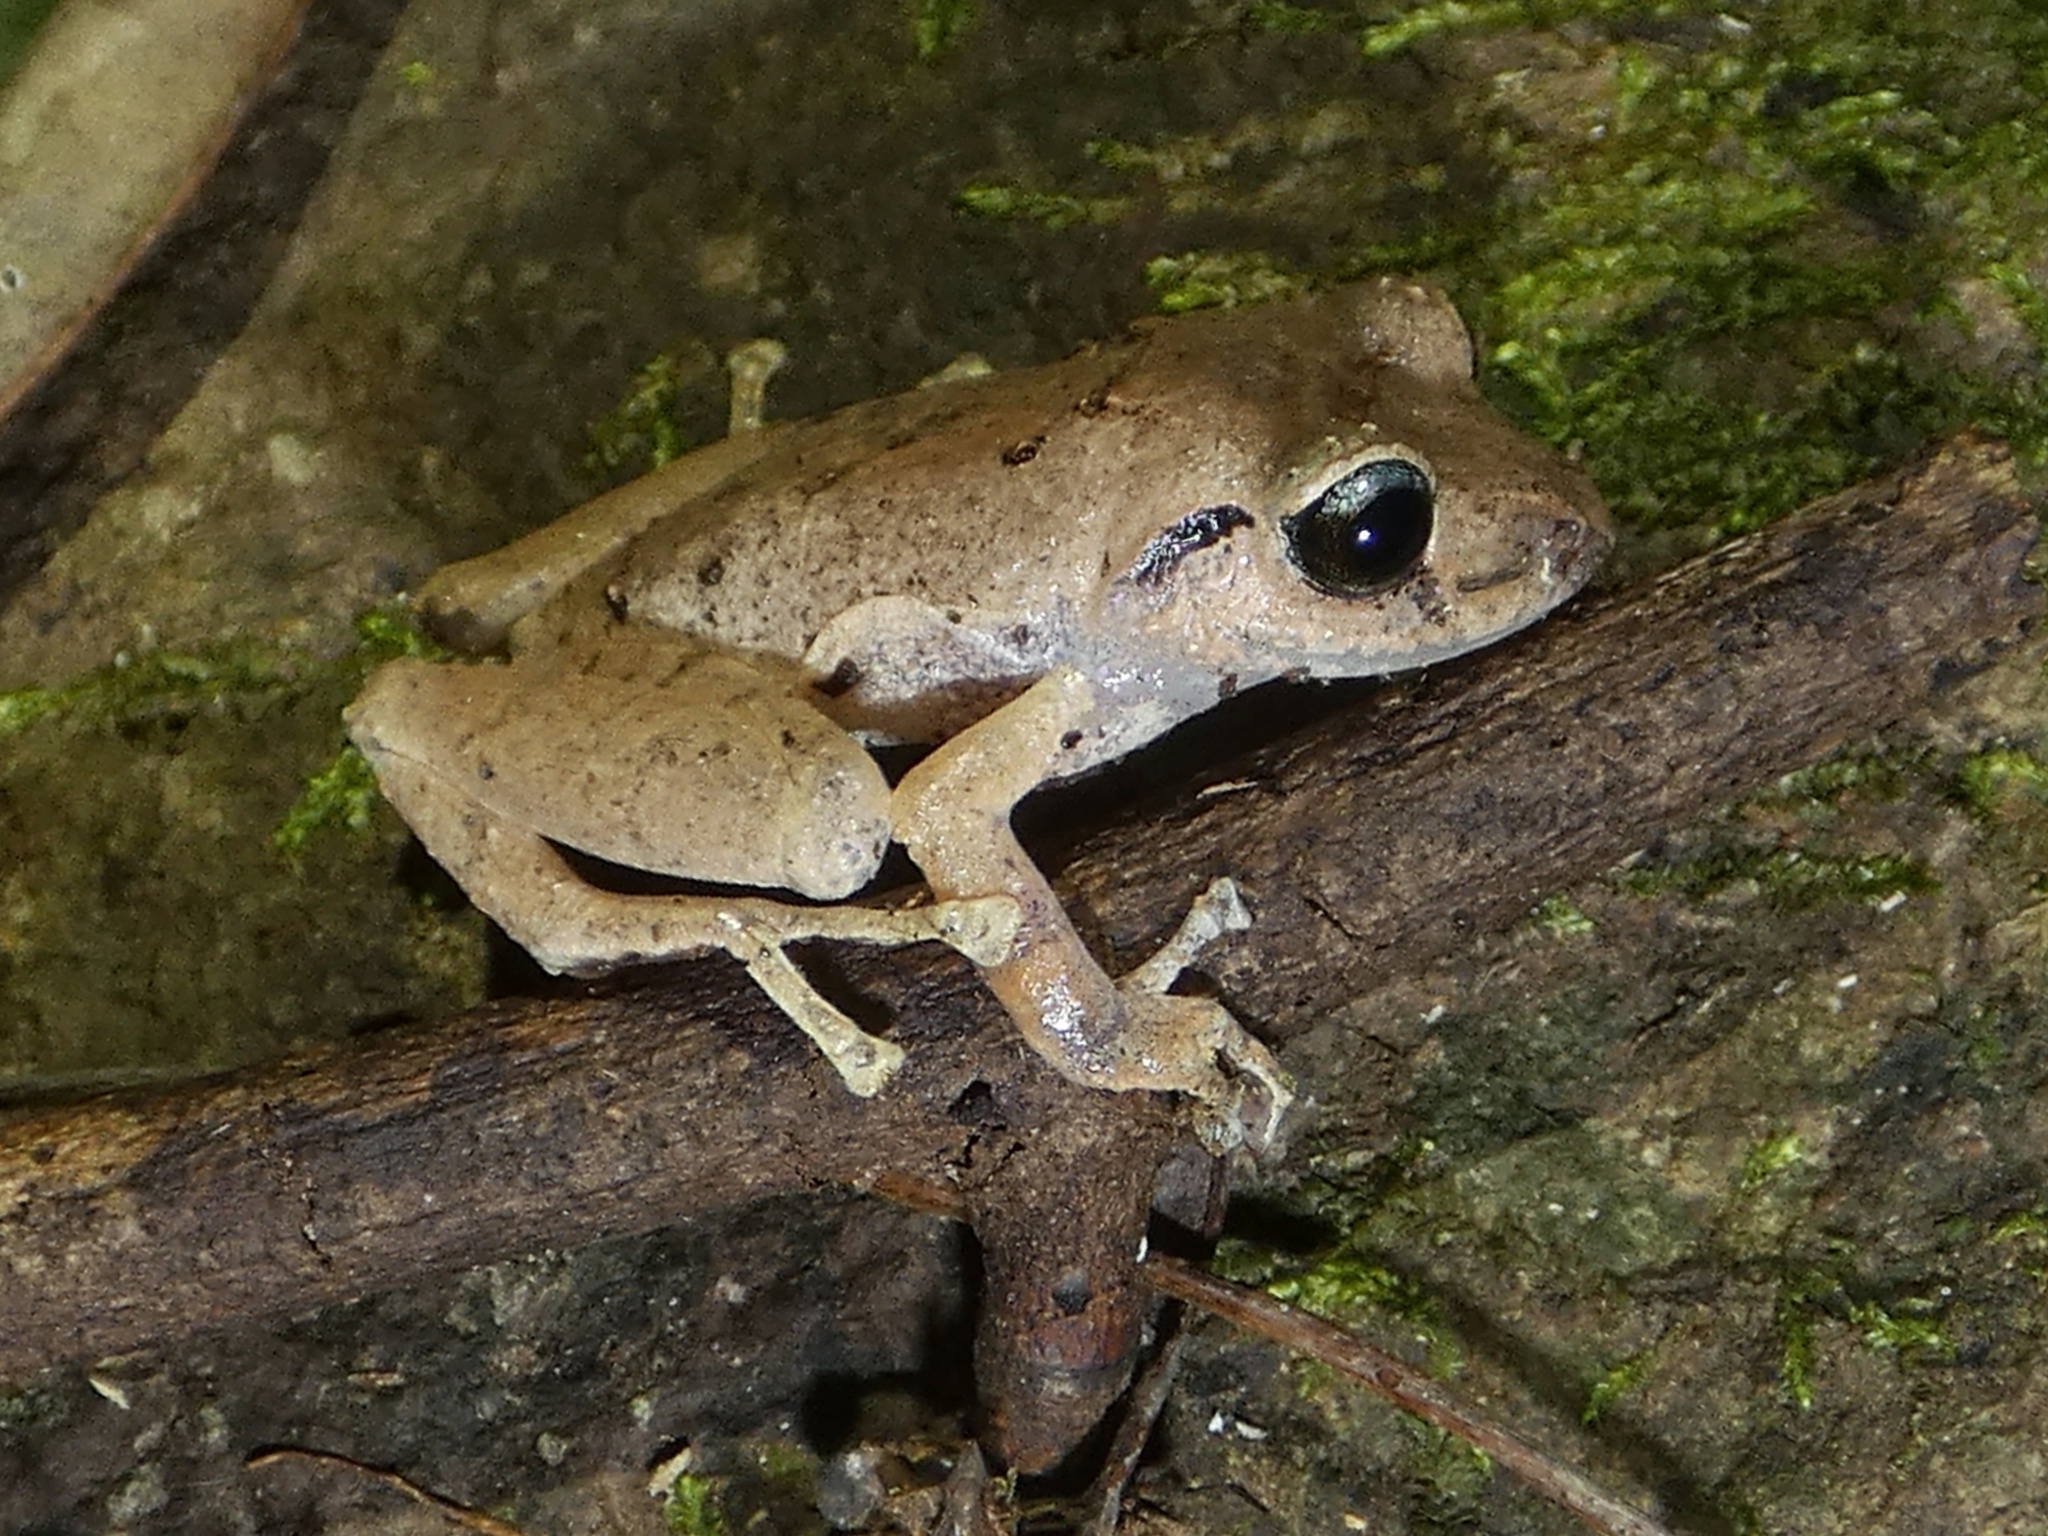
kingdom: Animalia
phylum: Chordata
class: Amphibia
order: Anura
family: Craugastoridae
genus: Pristimantis
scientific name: Pristimantis taeniatus
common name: Banded robber frog
